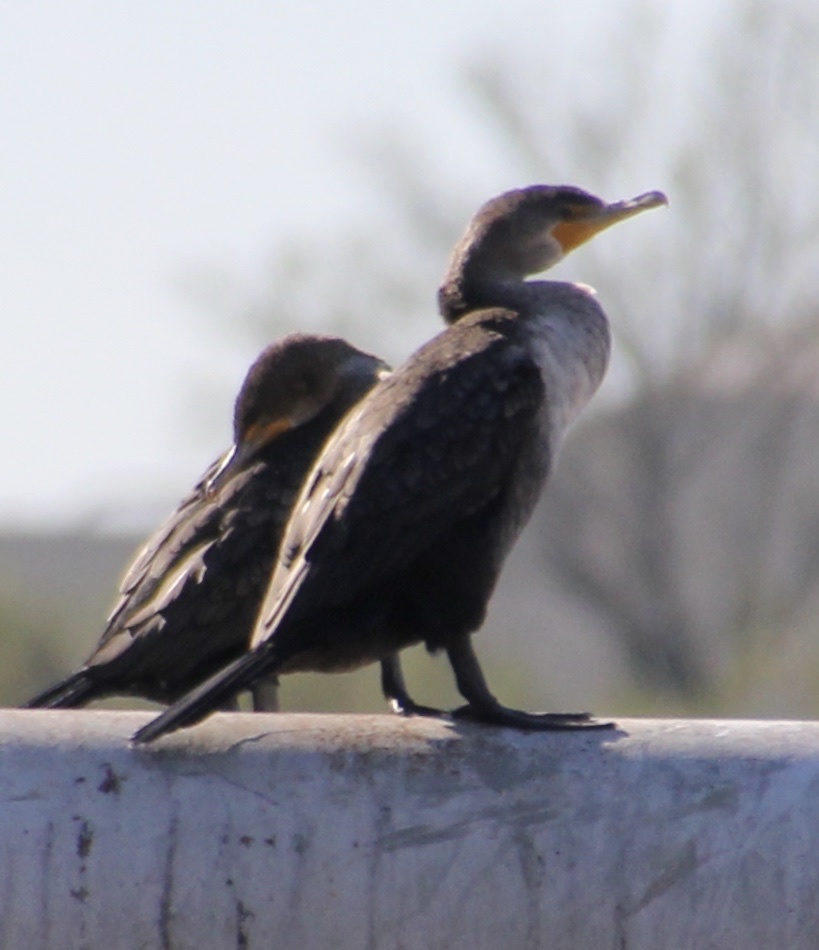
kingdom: Animalia
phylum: Chordata
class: Aves
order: Suliformes
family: Phalacrocoracidae
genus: Phalacrocorax
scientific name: Phalacrocorax auritus
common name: Double-crested cormorant
